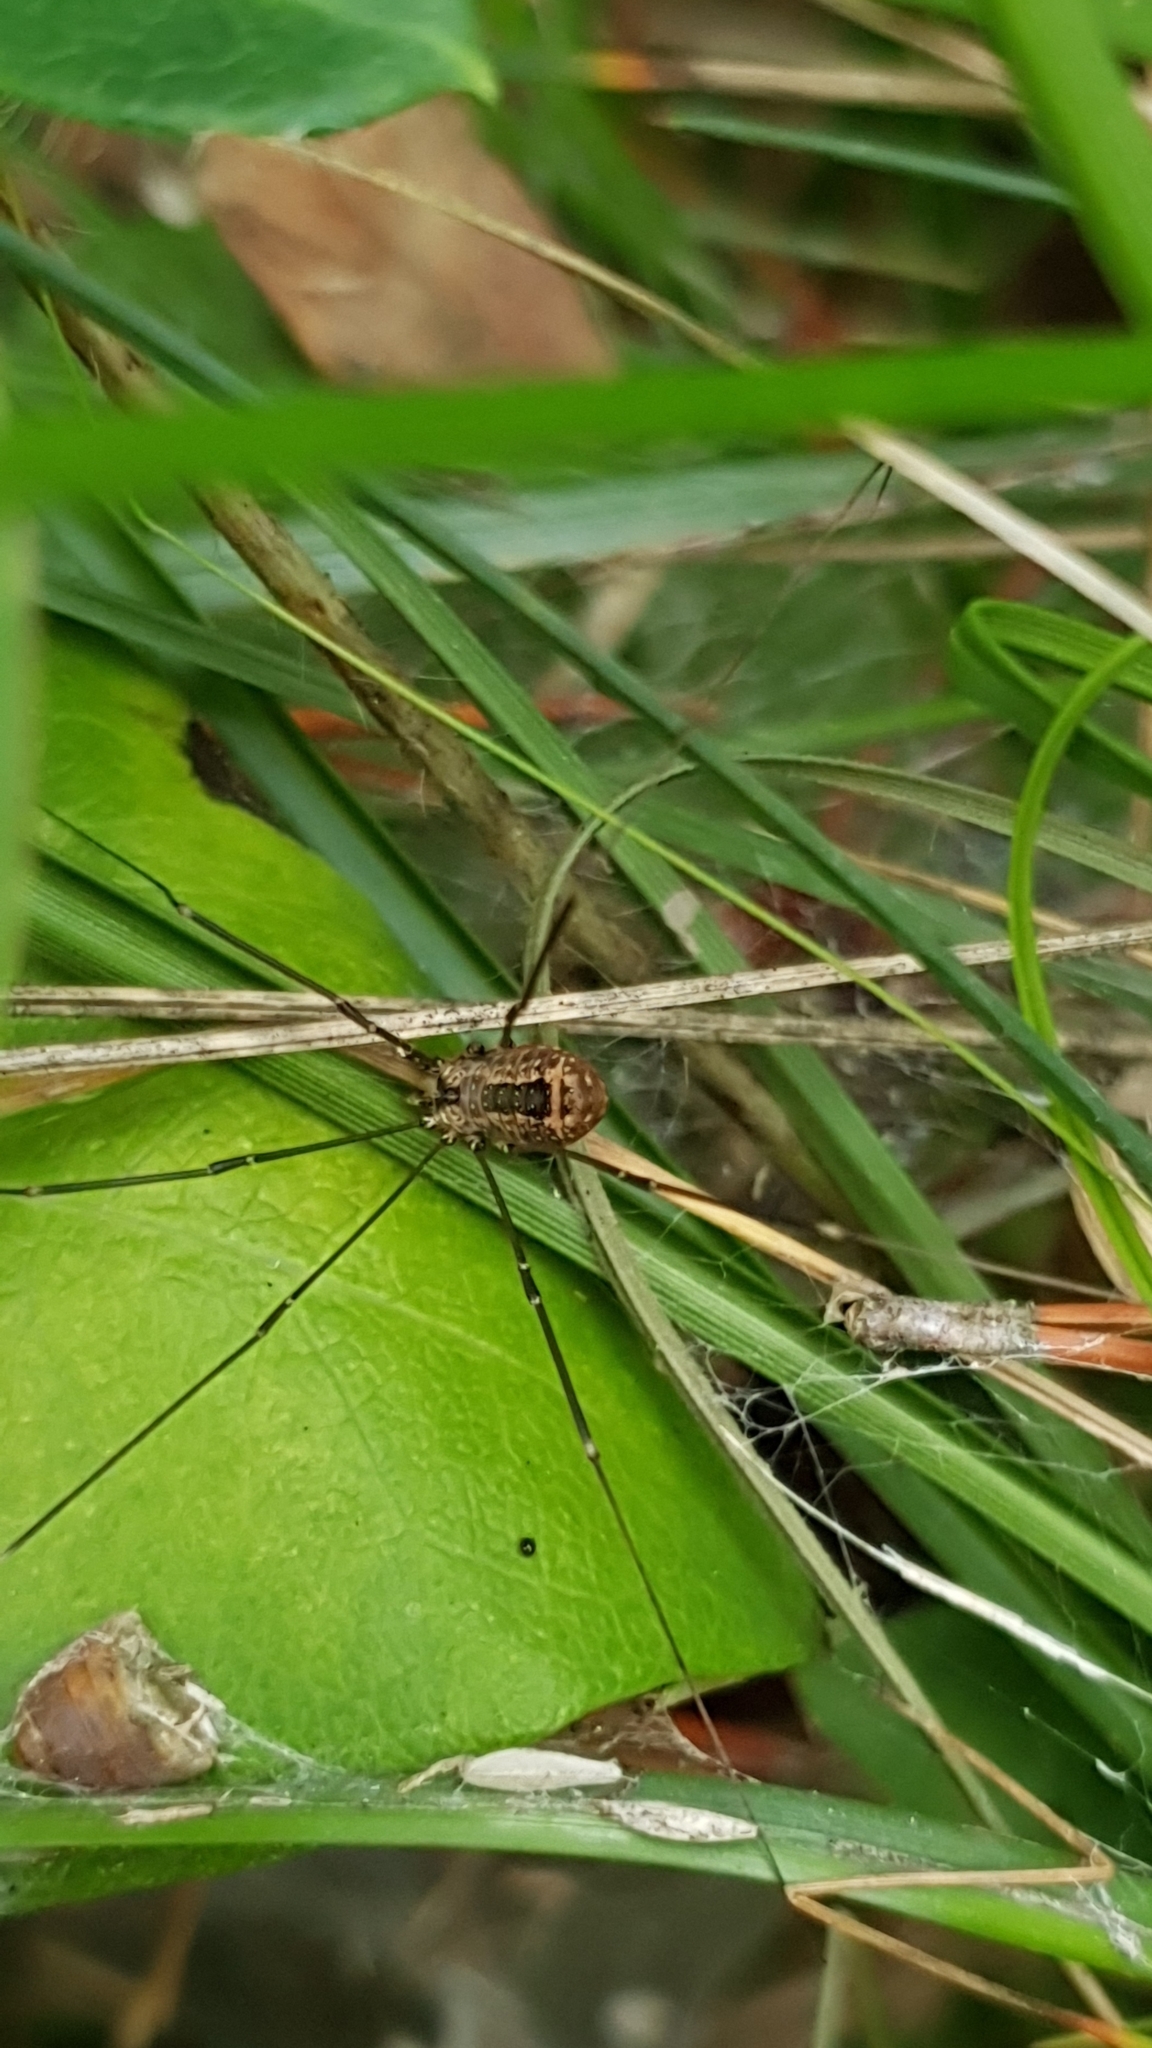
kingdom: Animalia
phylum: Arthropoda
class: Arachnida
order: Opiliones
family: Sclerosomatidae
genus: Leiobunum
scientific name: Leiobunum rotundum
